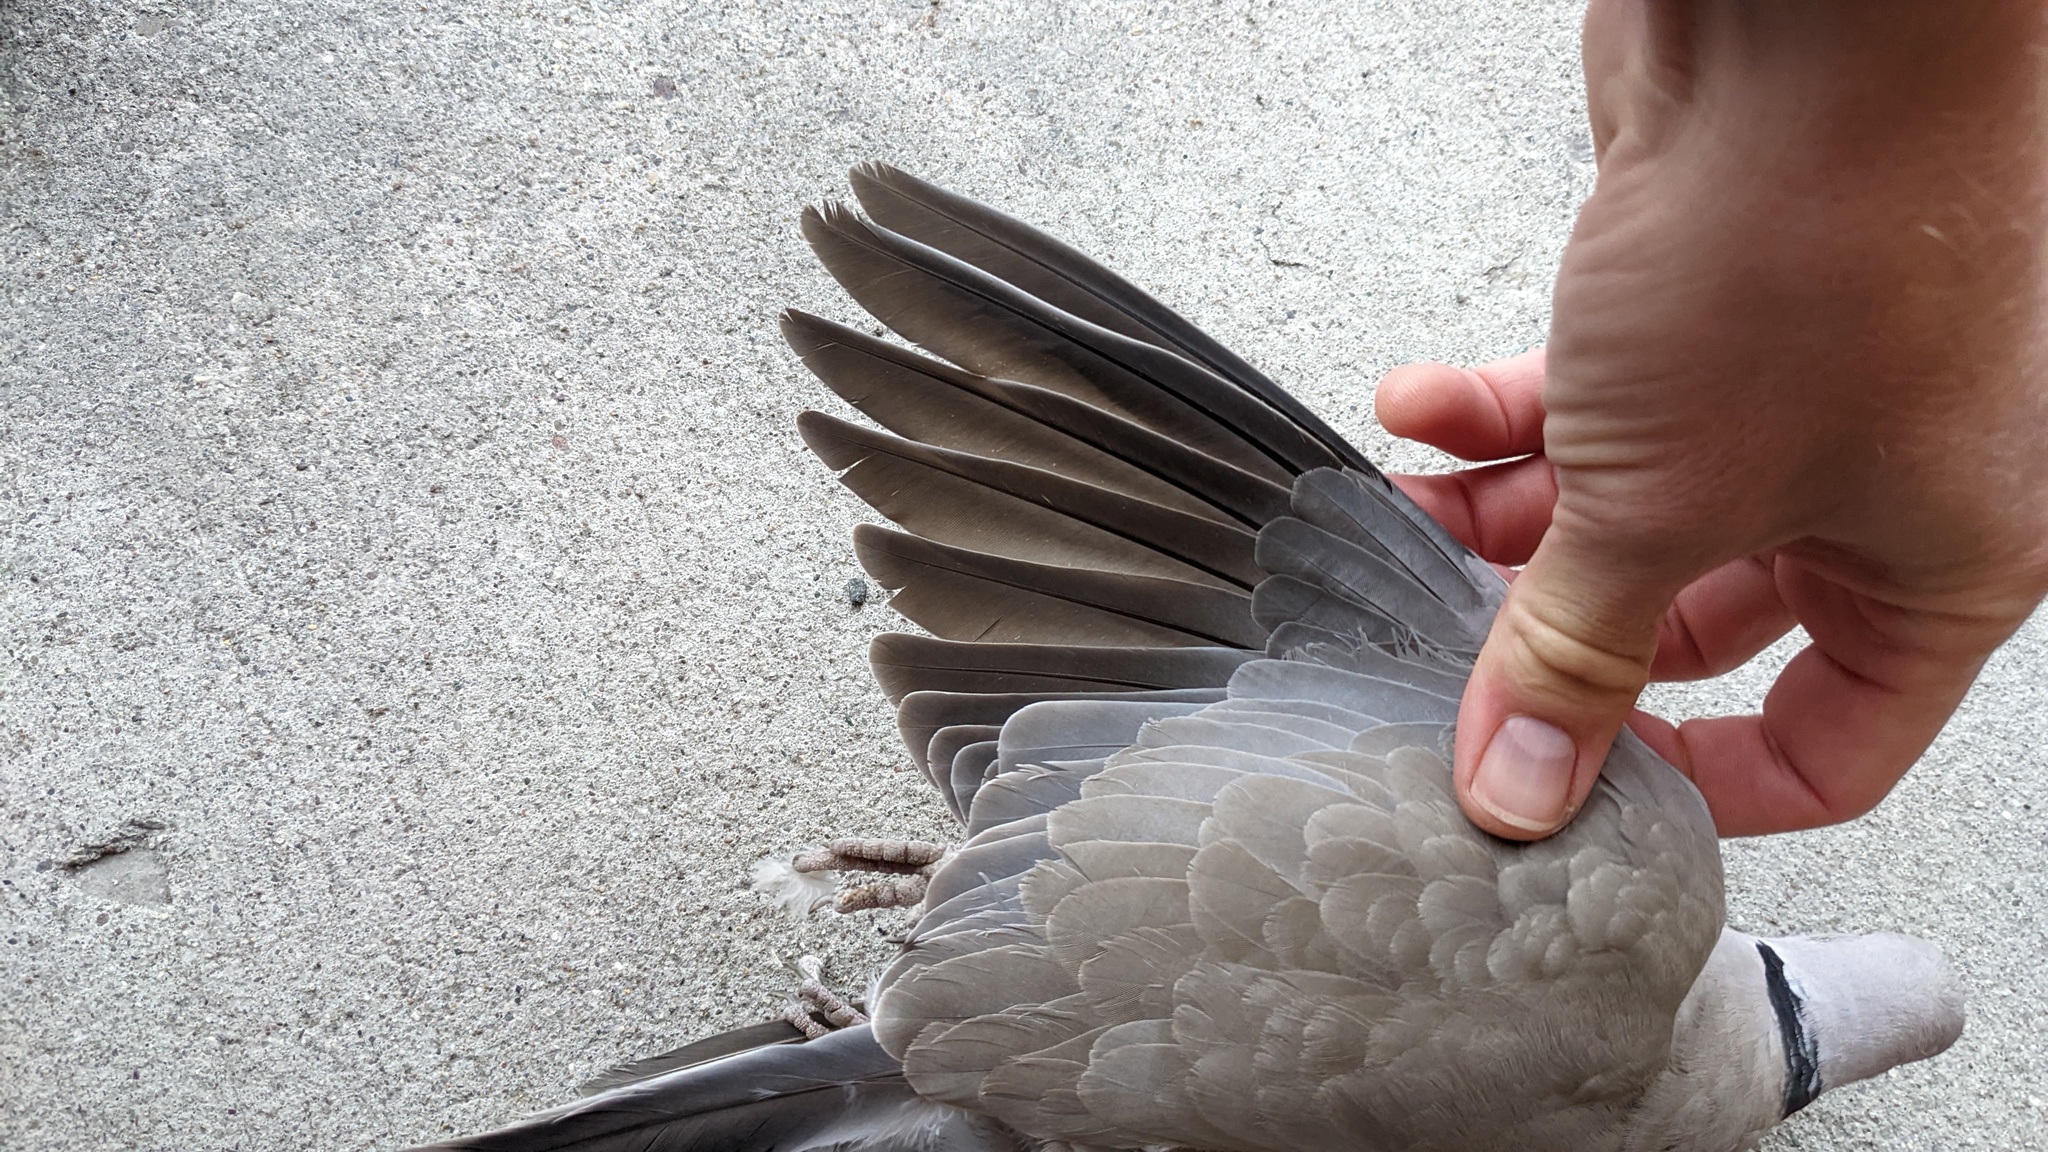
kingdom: Animalia
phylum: Chordata
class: Aves
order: Columbiformes
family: Columbidae
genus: Streptopelia
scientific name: Streptopelia decaocto
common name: Eurasian collared dove
